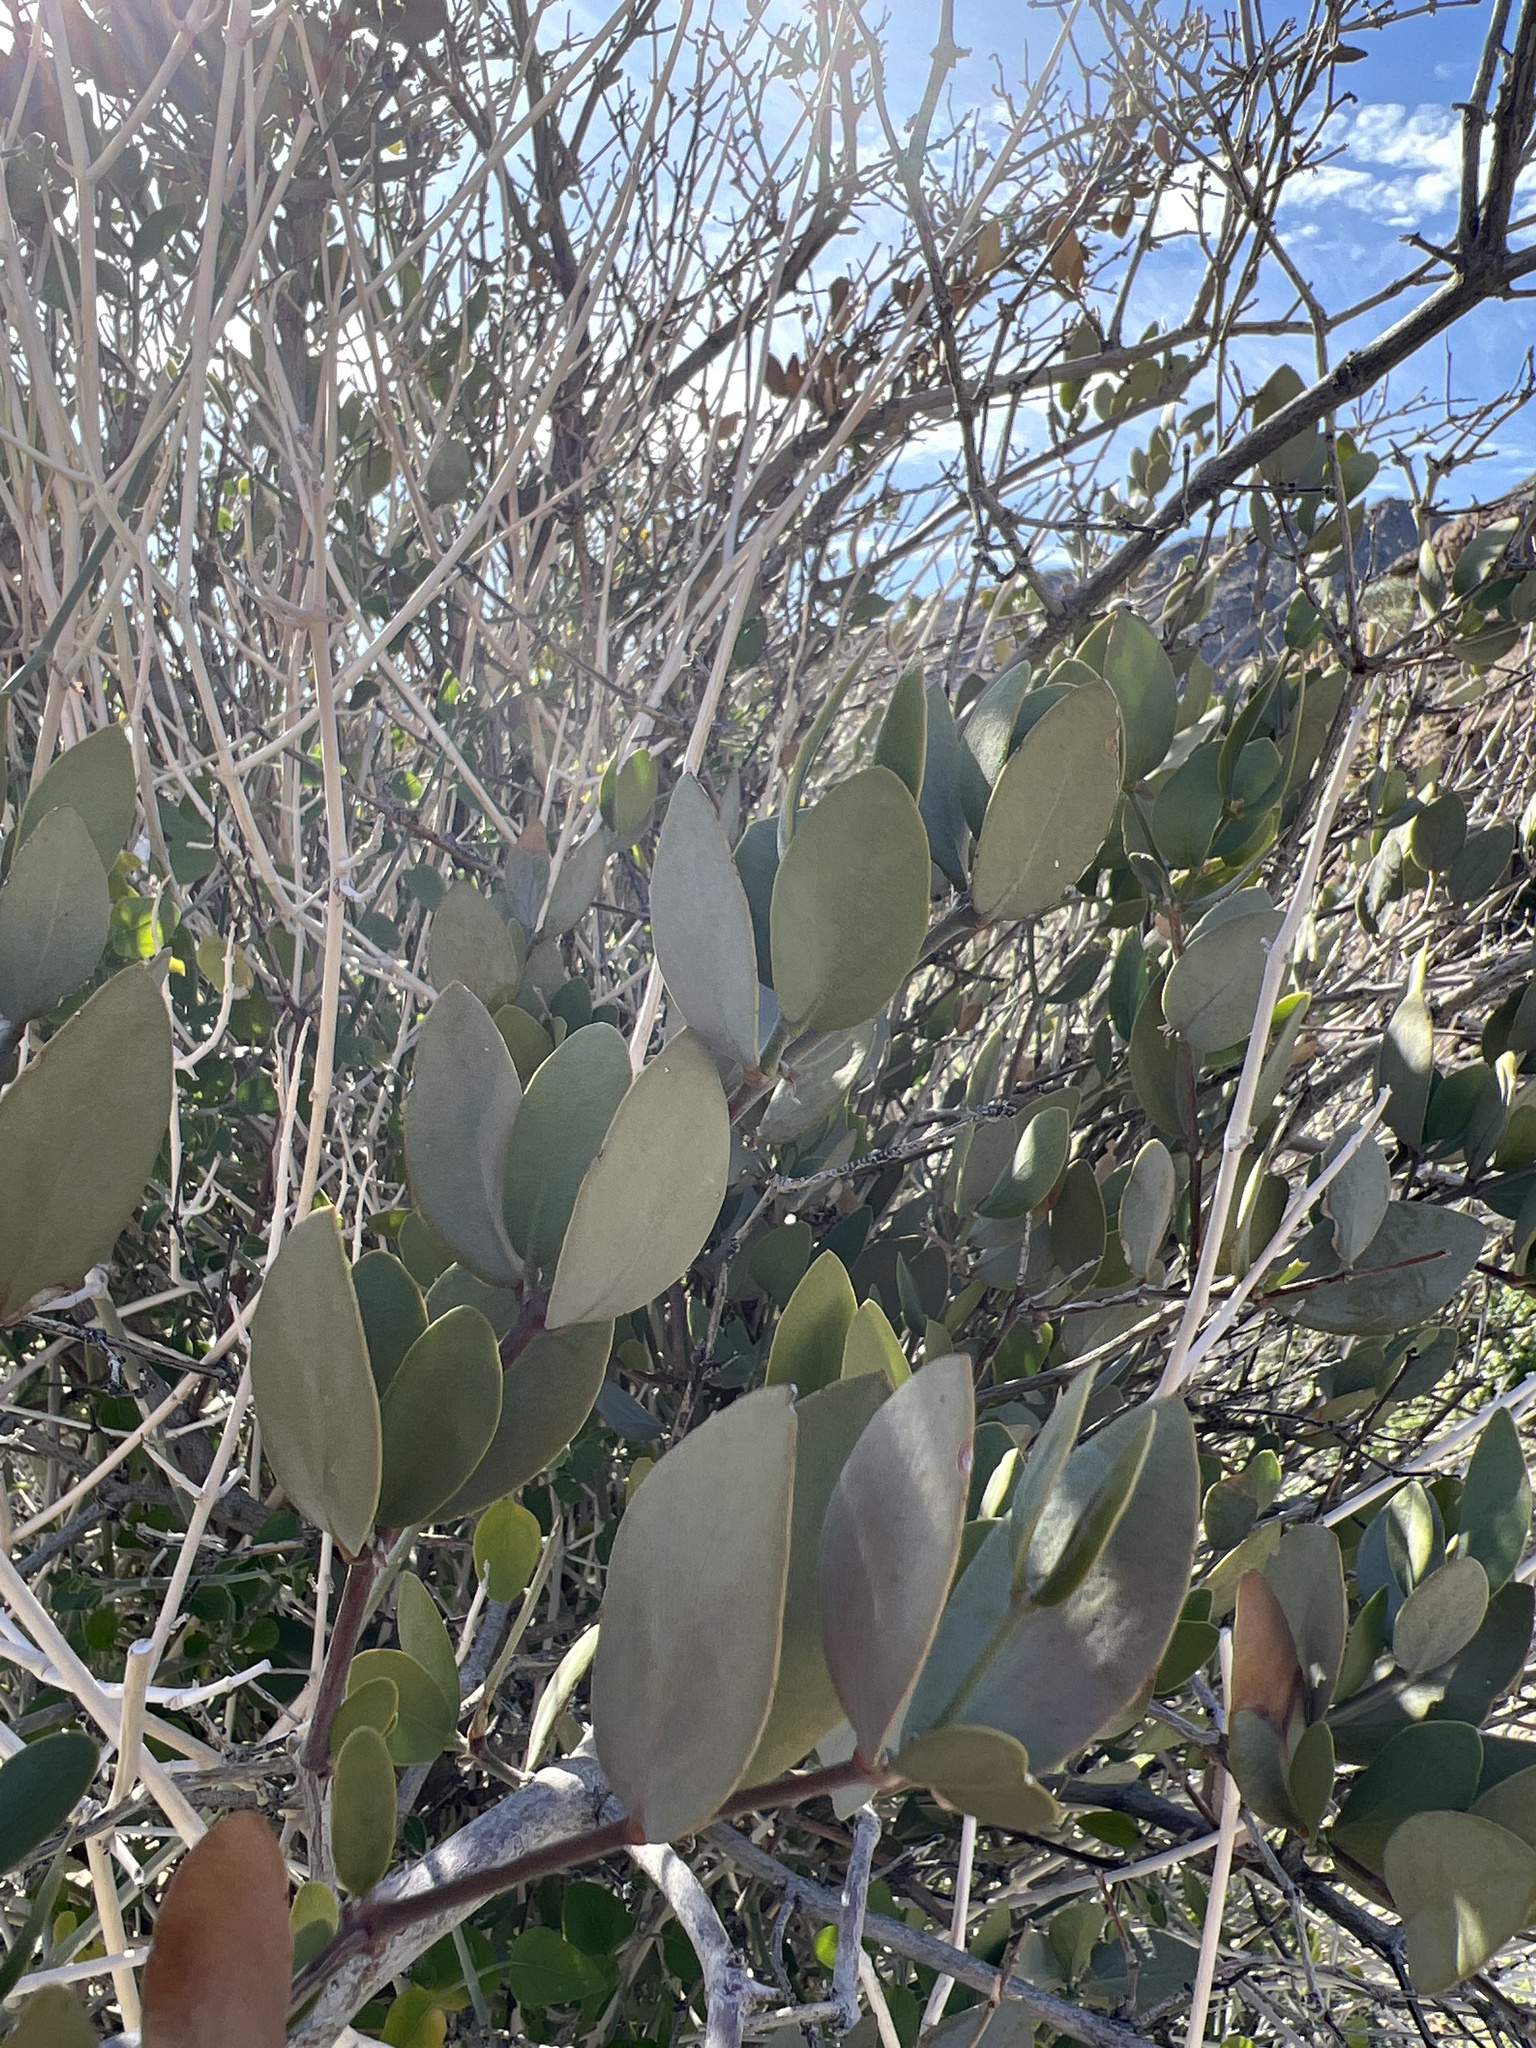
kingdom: Plantae
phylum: Tracheophyta
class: Magnoliopsida
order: Caryophyllales
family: Simmondsiaceae
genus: Simmondsia
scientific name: Simmondsia chinensis
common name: Jojoba
